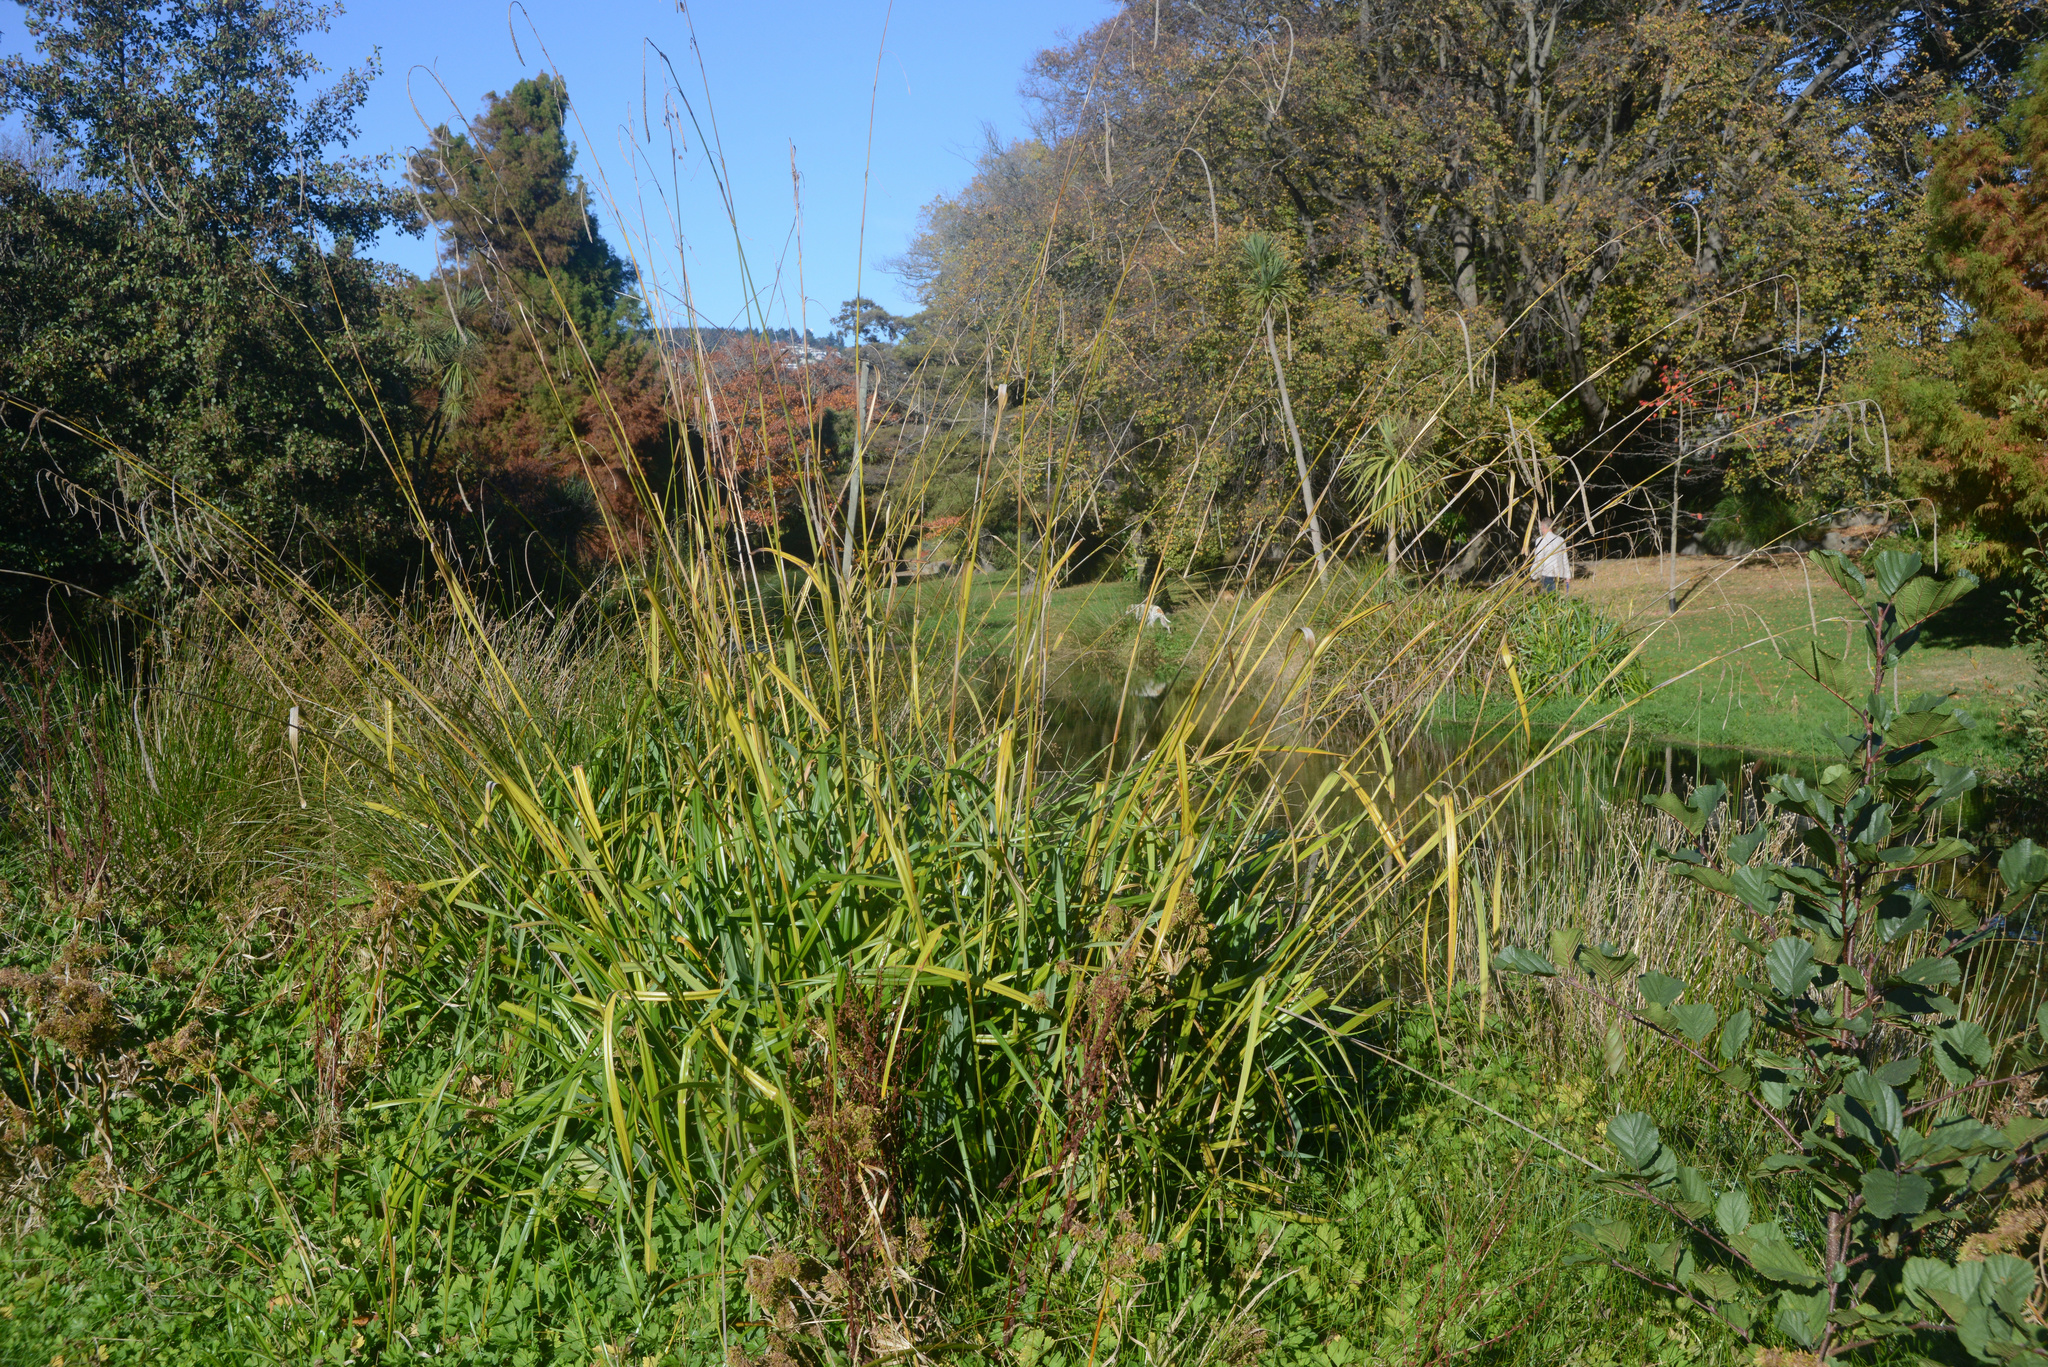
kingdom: Plantae
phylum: Tracheophyta
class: Liliopsida
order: Poales
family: Cyperaceae
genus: Carex
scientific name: Carex pendula
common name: Pendulous sedge
